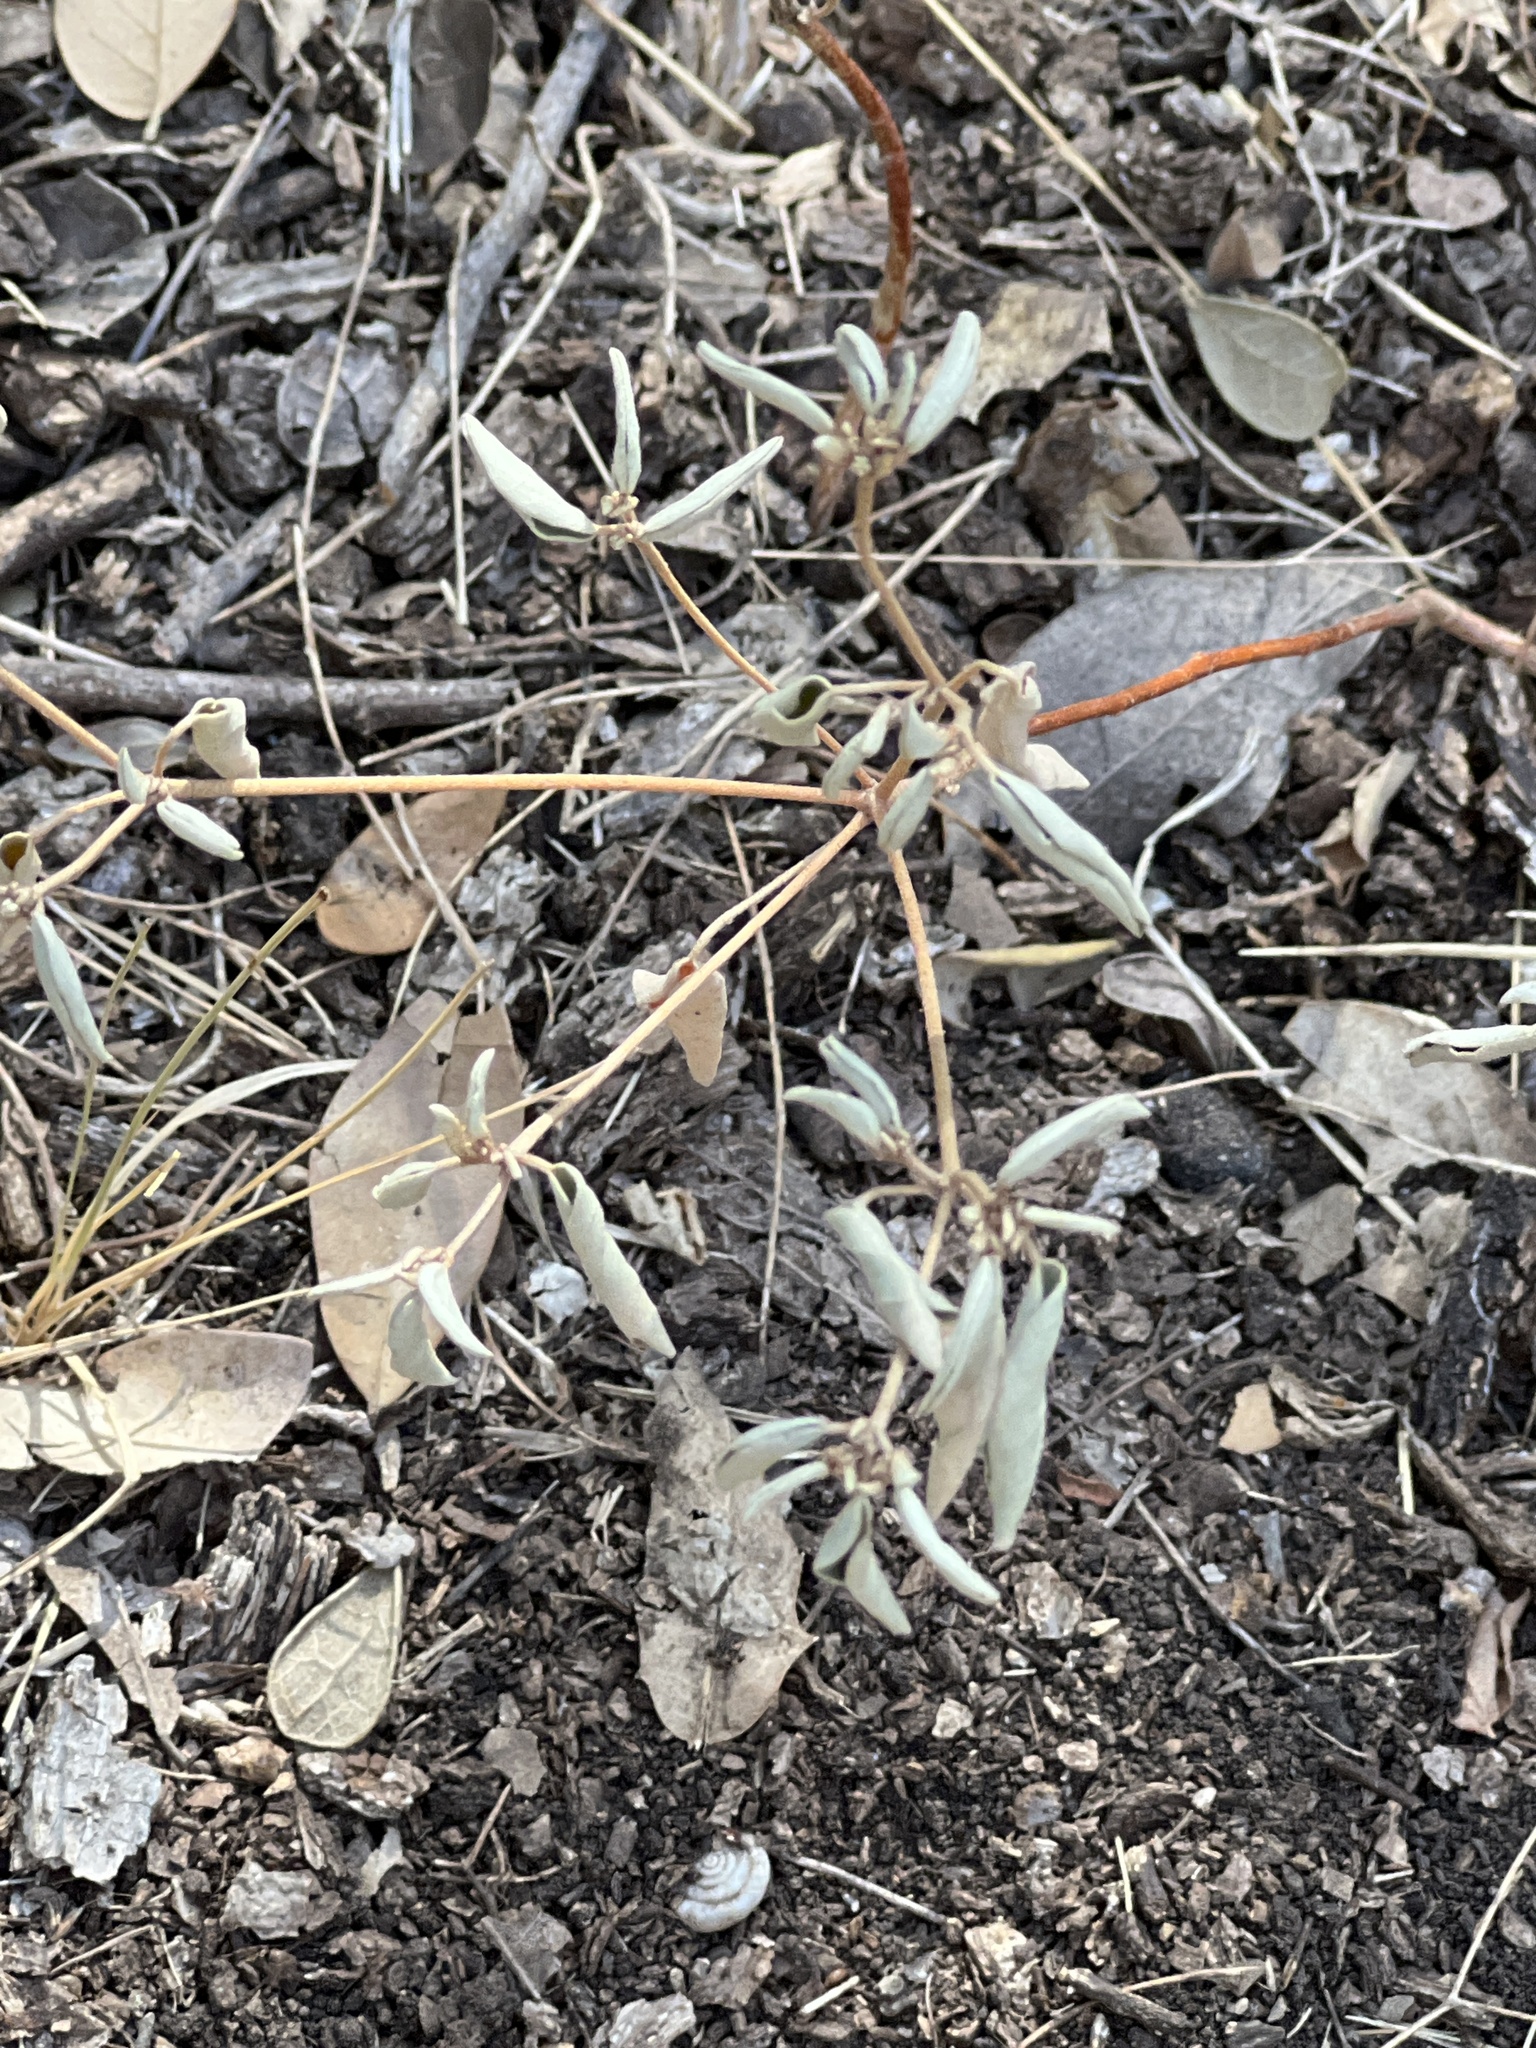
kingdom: Plantae
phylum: Tracheophyta
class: Magnoliopsida
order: Malpighiales
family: Euphorbiaceae
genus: Croton
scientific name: Croton monanthogynus
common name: One-seed croton
